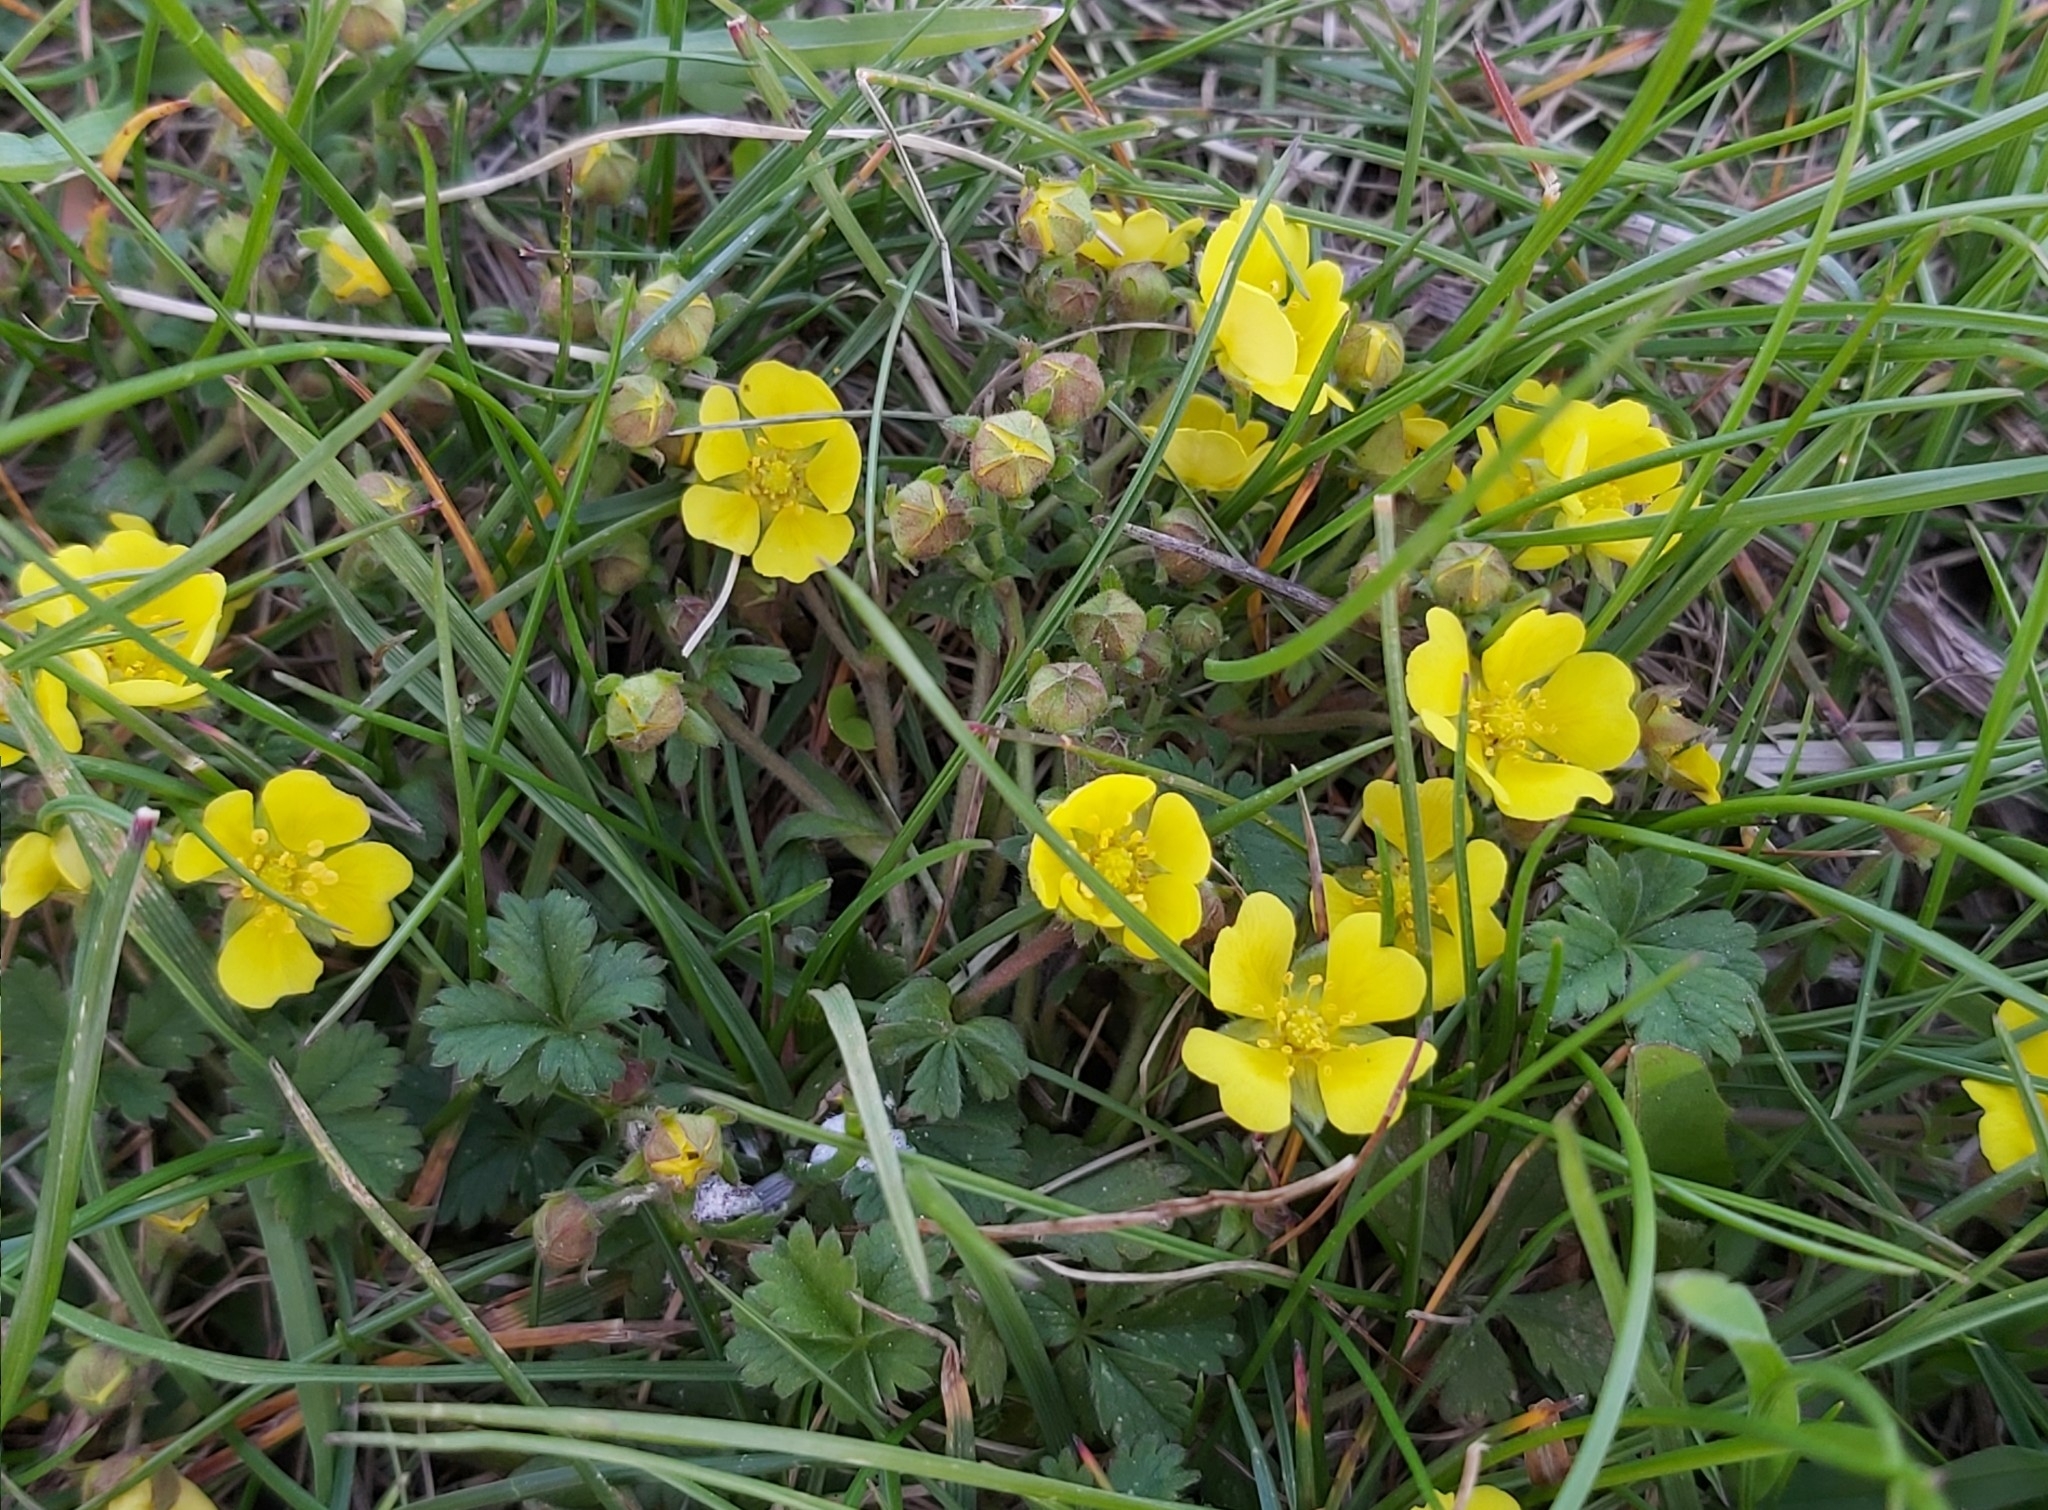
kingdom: Plantae
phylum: Tracheophyta
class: Magnoliopsida
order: Rosales
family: Rosaceae
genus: Potentilla
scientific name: Potentilla incana
